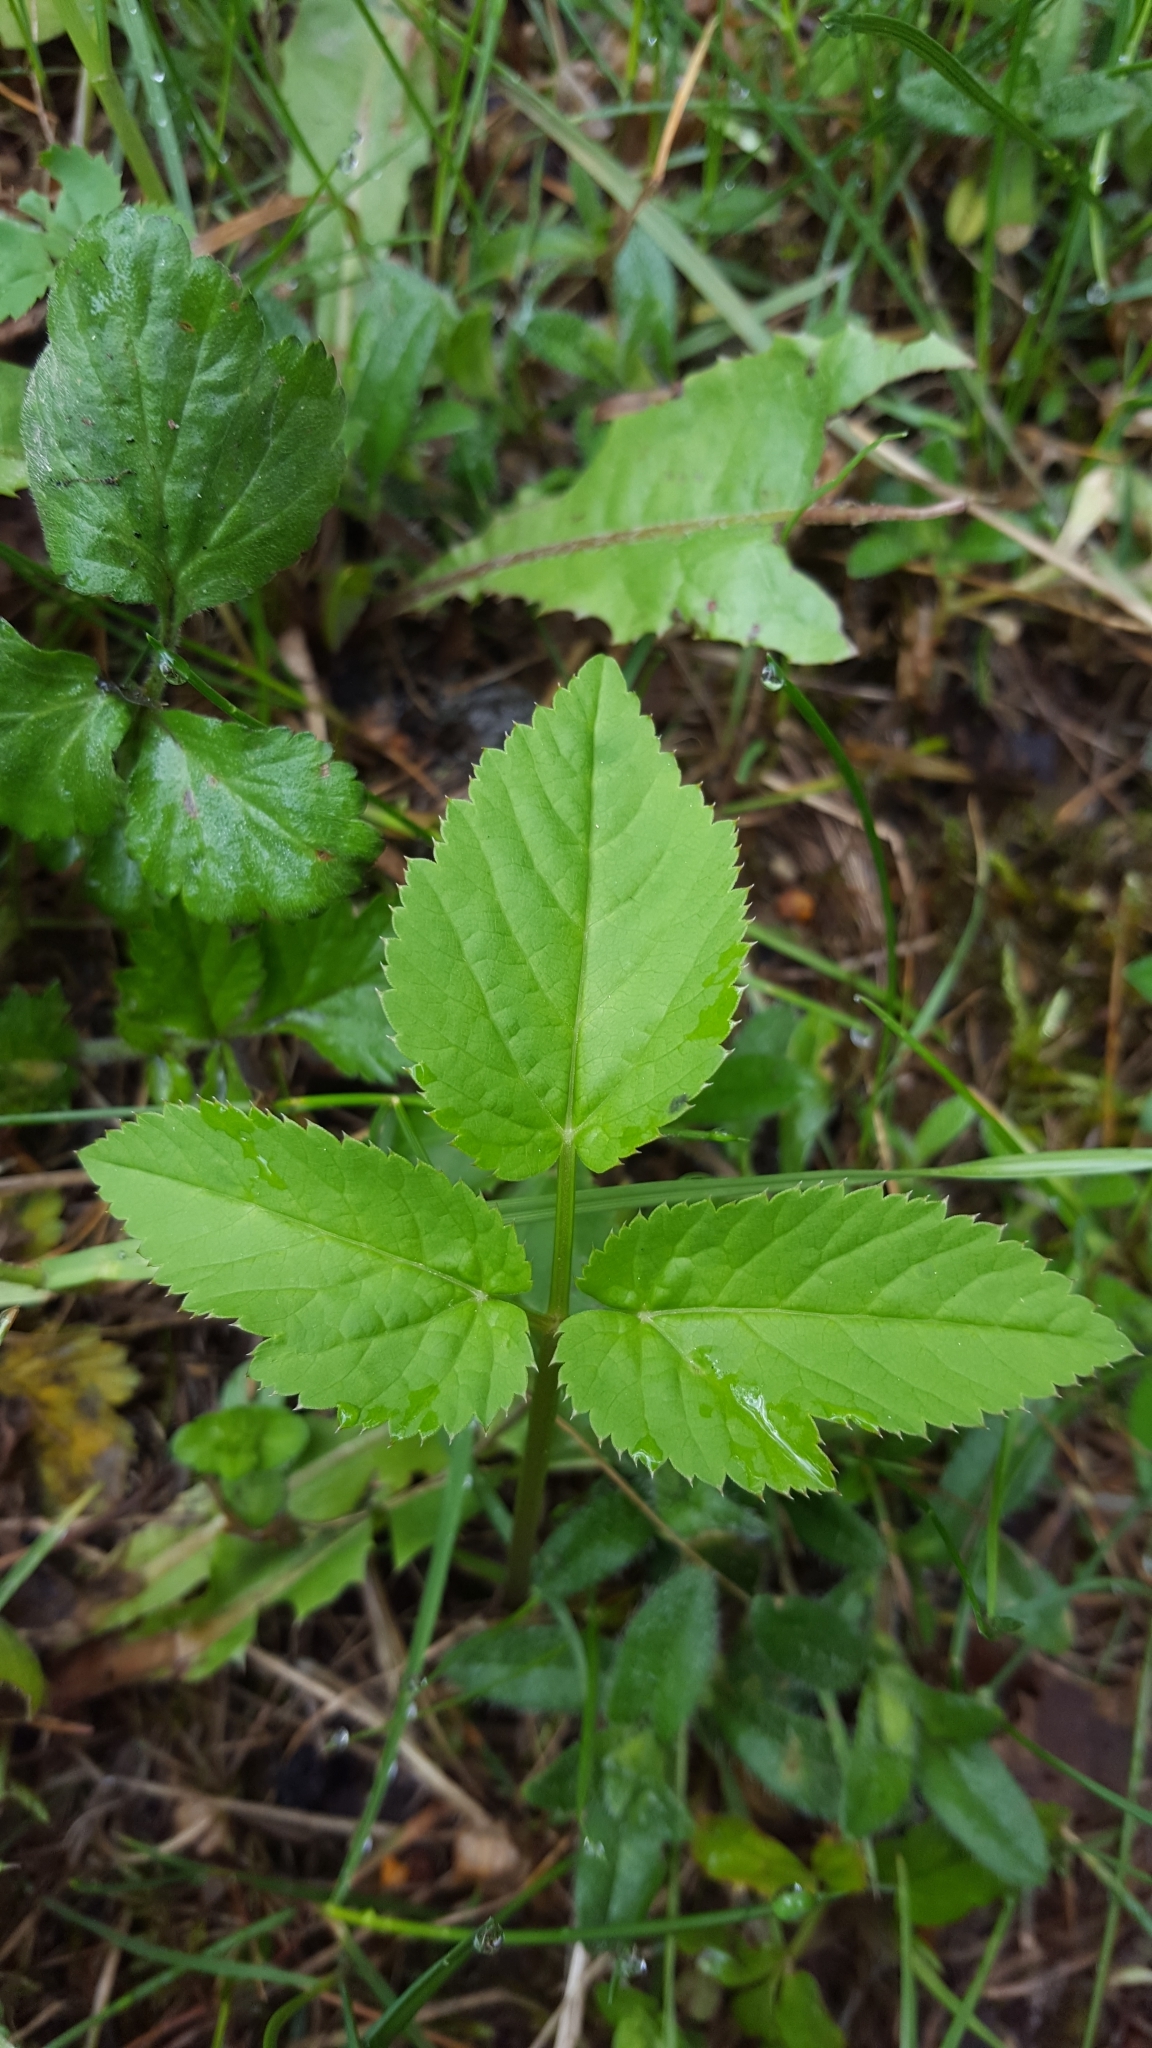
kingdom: Plantae
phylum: Tracheophyta
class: Magnoliopsida
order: Apiales
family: Apiaceae
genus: Aegopodium
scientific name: Aegopodium podagraria
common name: Ground-elder
